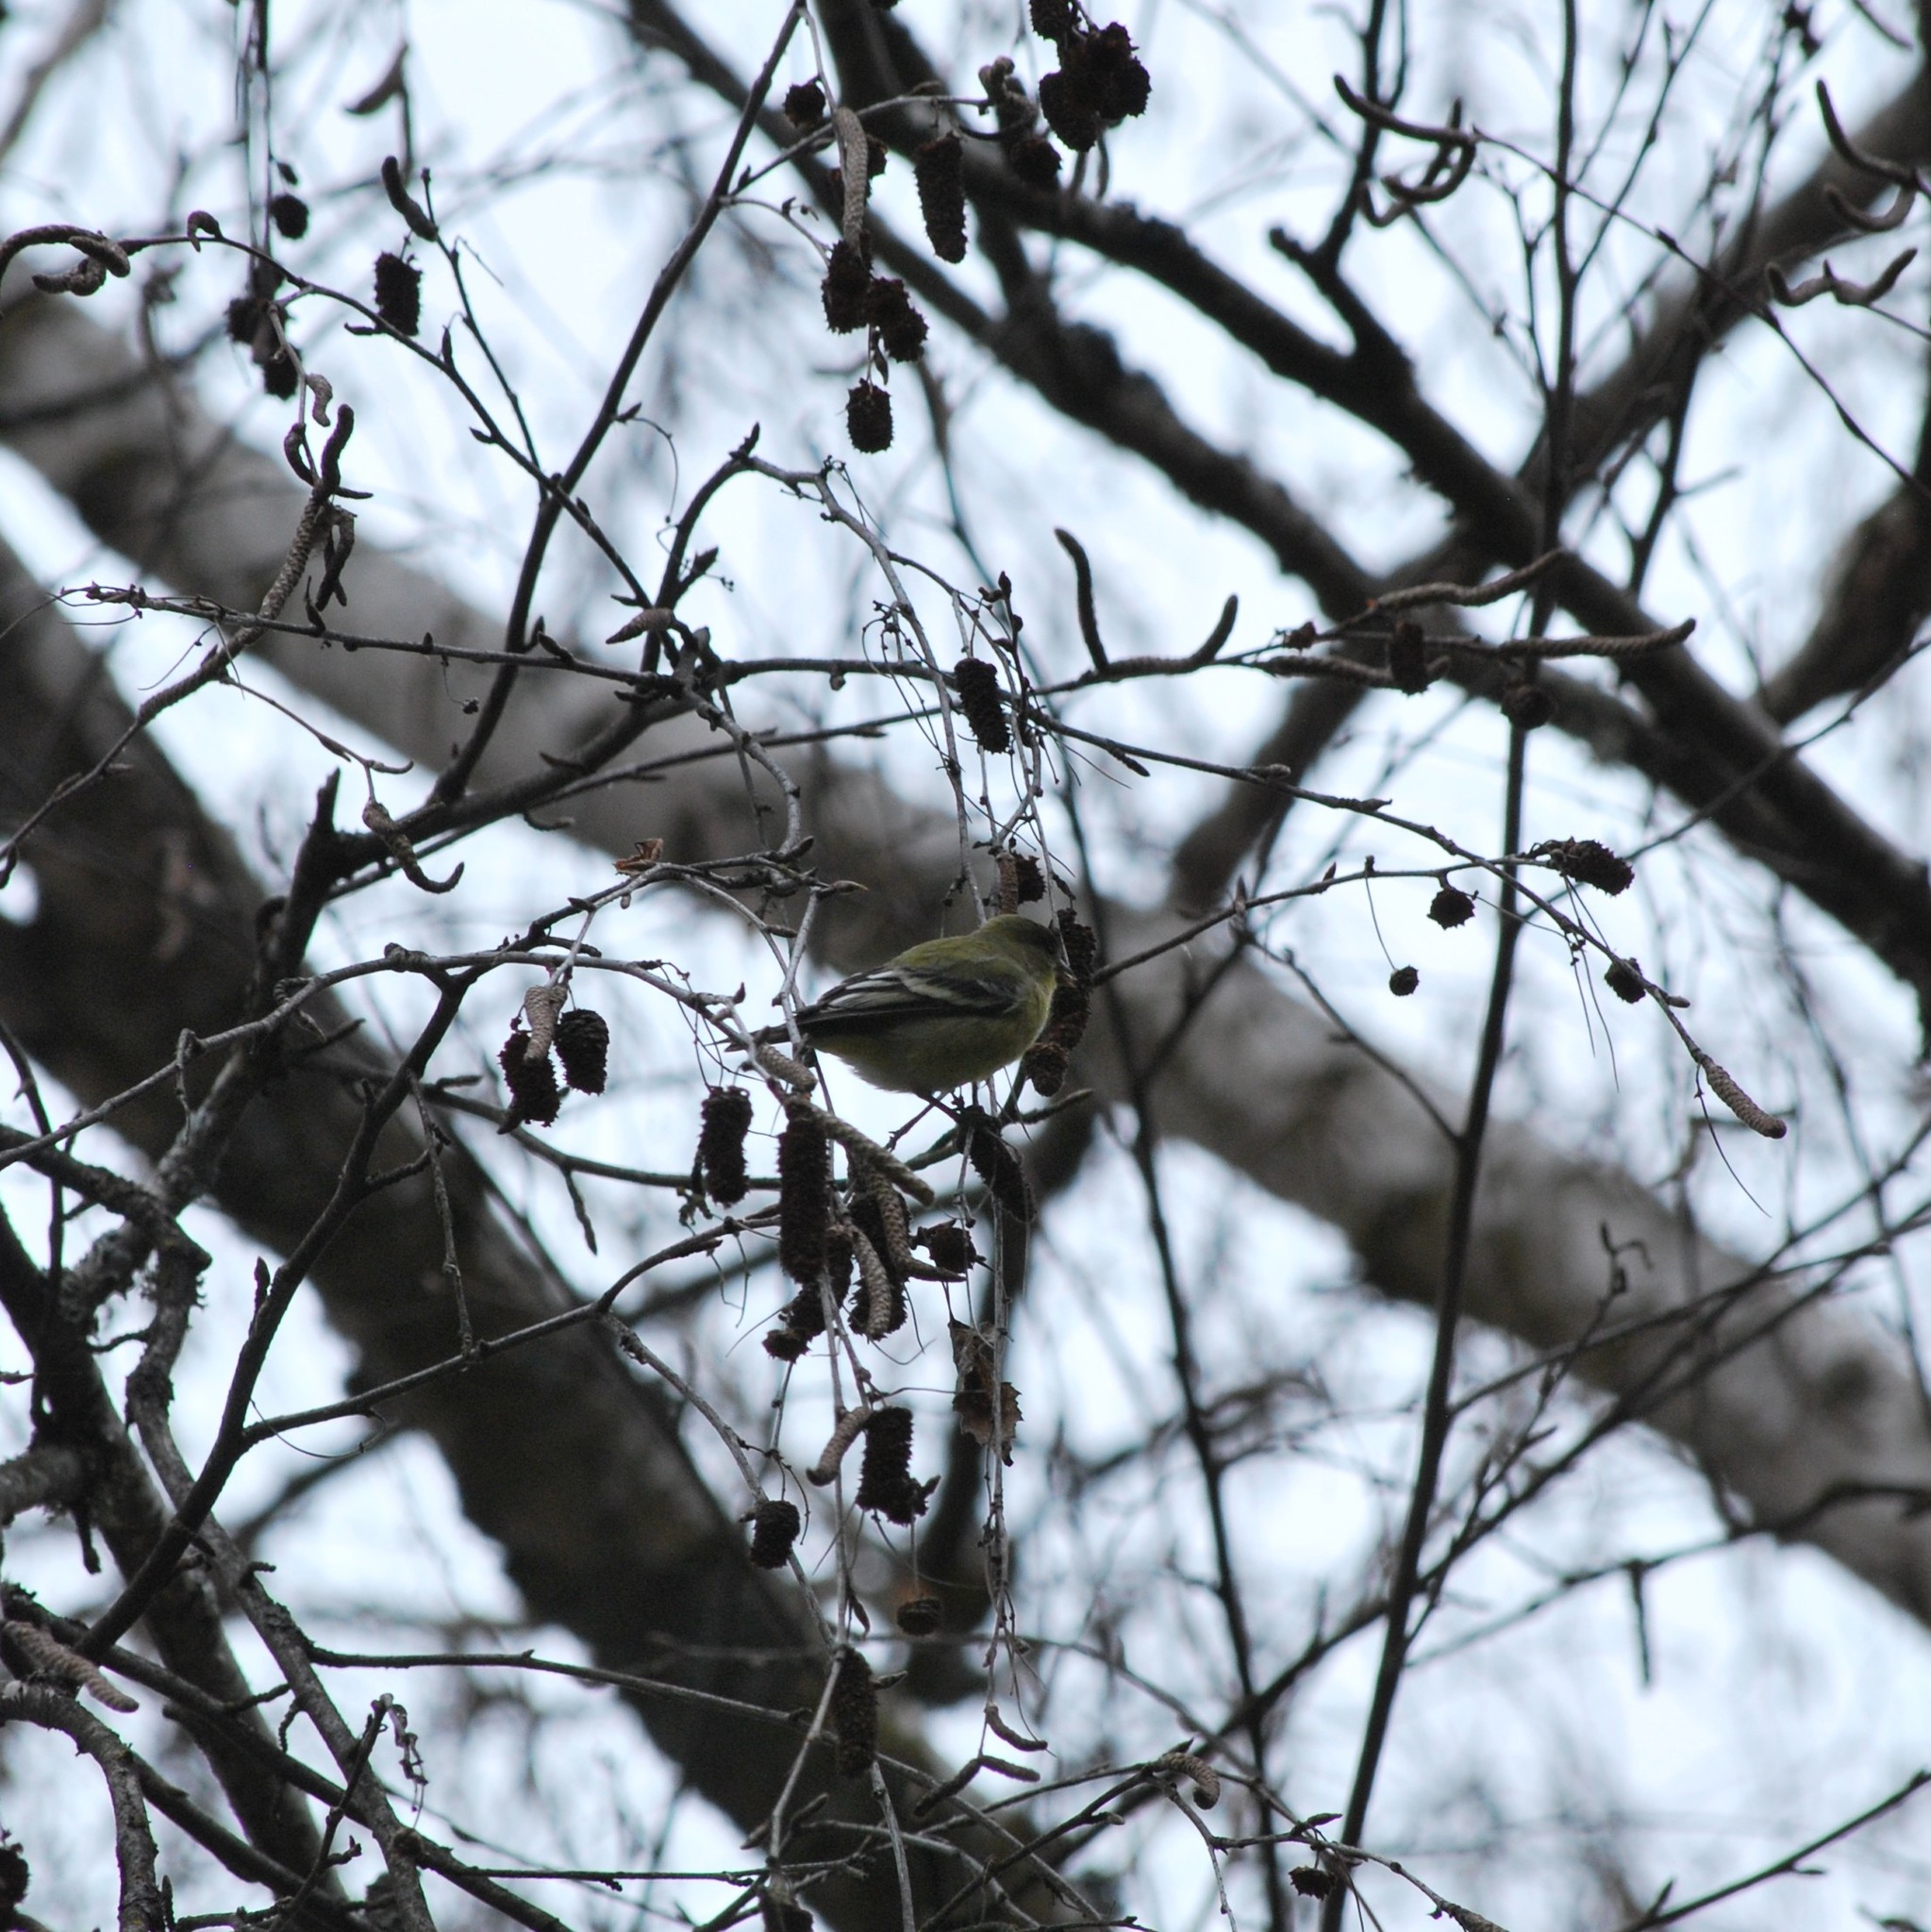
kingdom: Animalia
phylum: Chordata
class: Aves
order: Passeriformes
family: Fringillidae
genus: Spinus
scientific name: Spinus psaltria
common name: Lesser goldfinch
